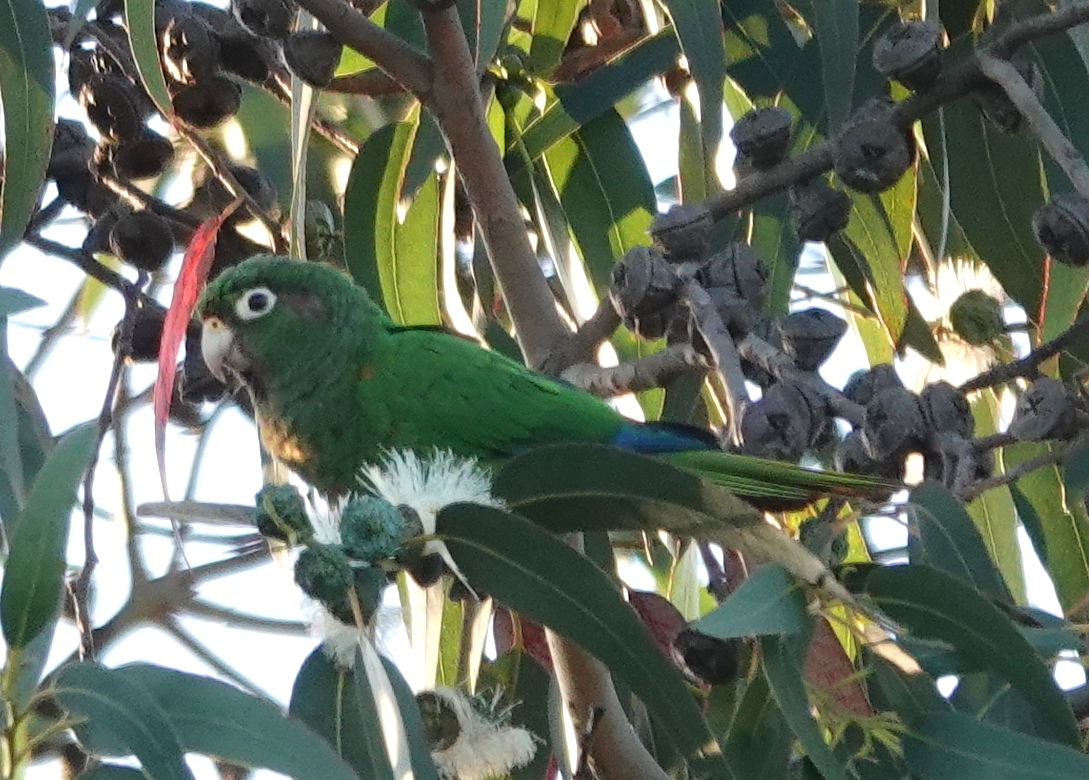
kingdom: Animalia
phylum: Chordata
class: Aves
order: Psittaciformes
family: Psittacidae
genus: Pyrrhura
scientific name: Pyrrhura viridicata
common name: Santa marta parakeet
